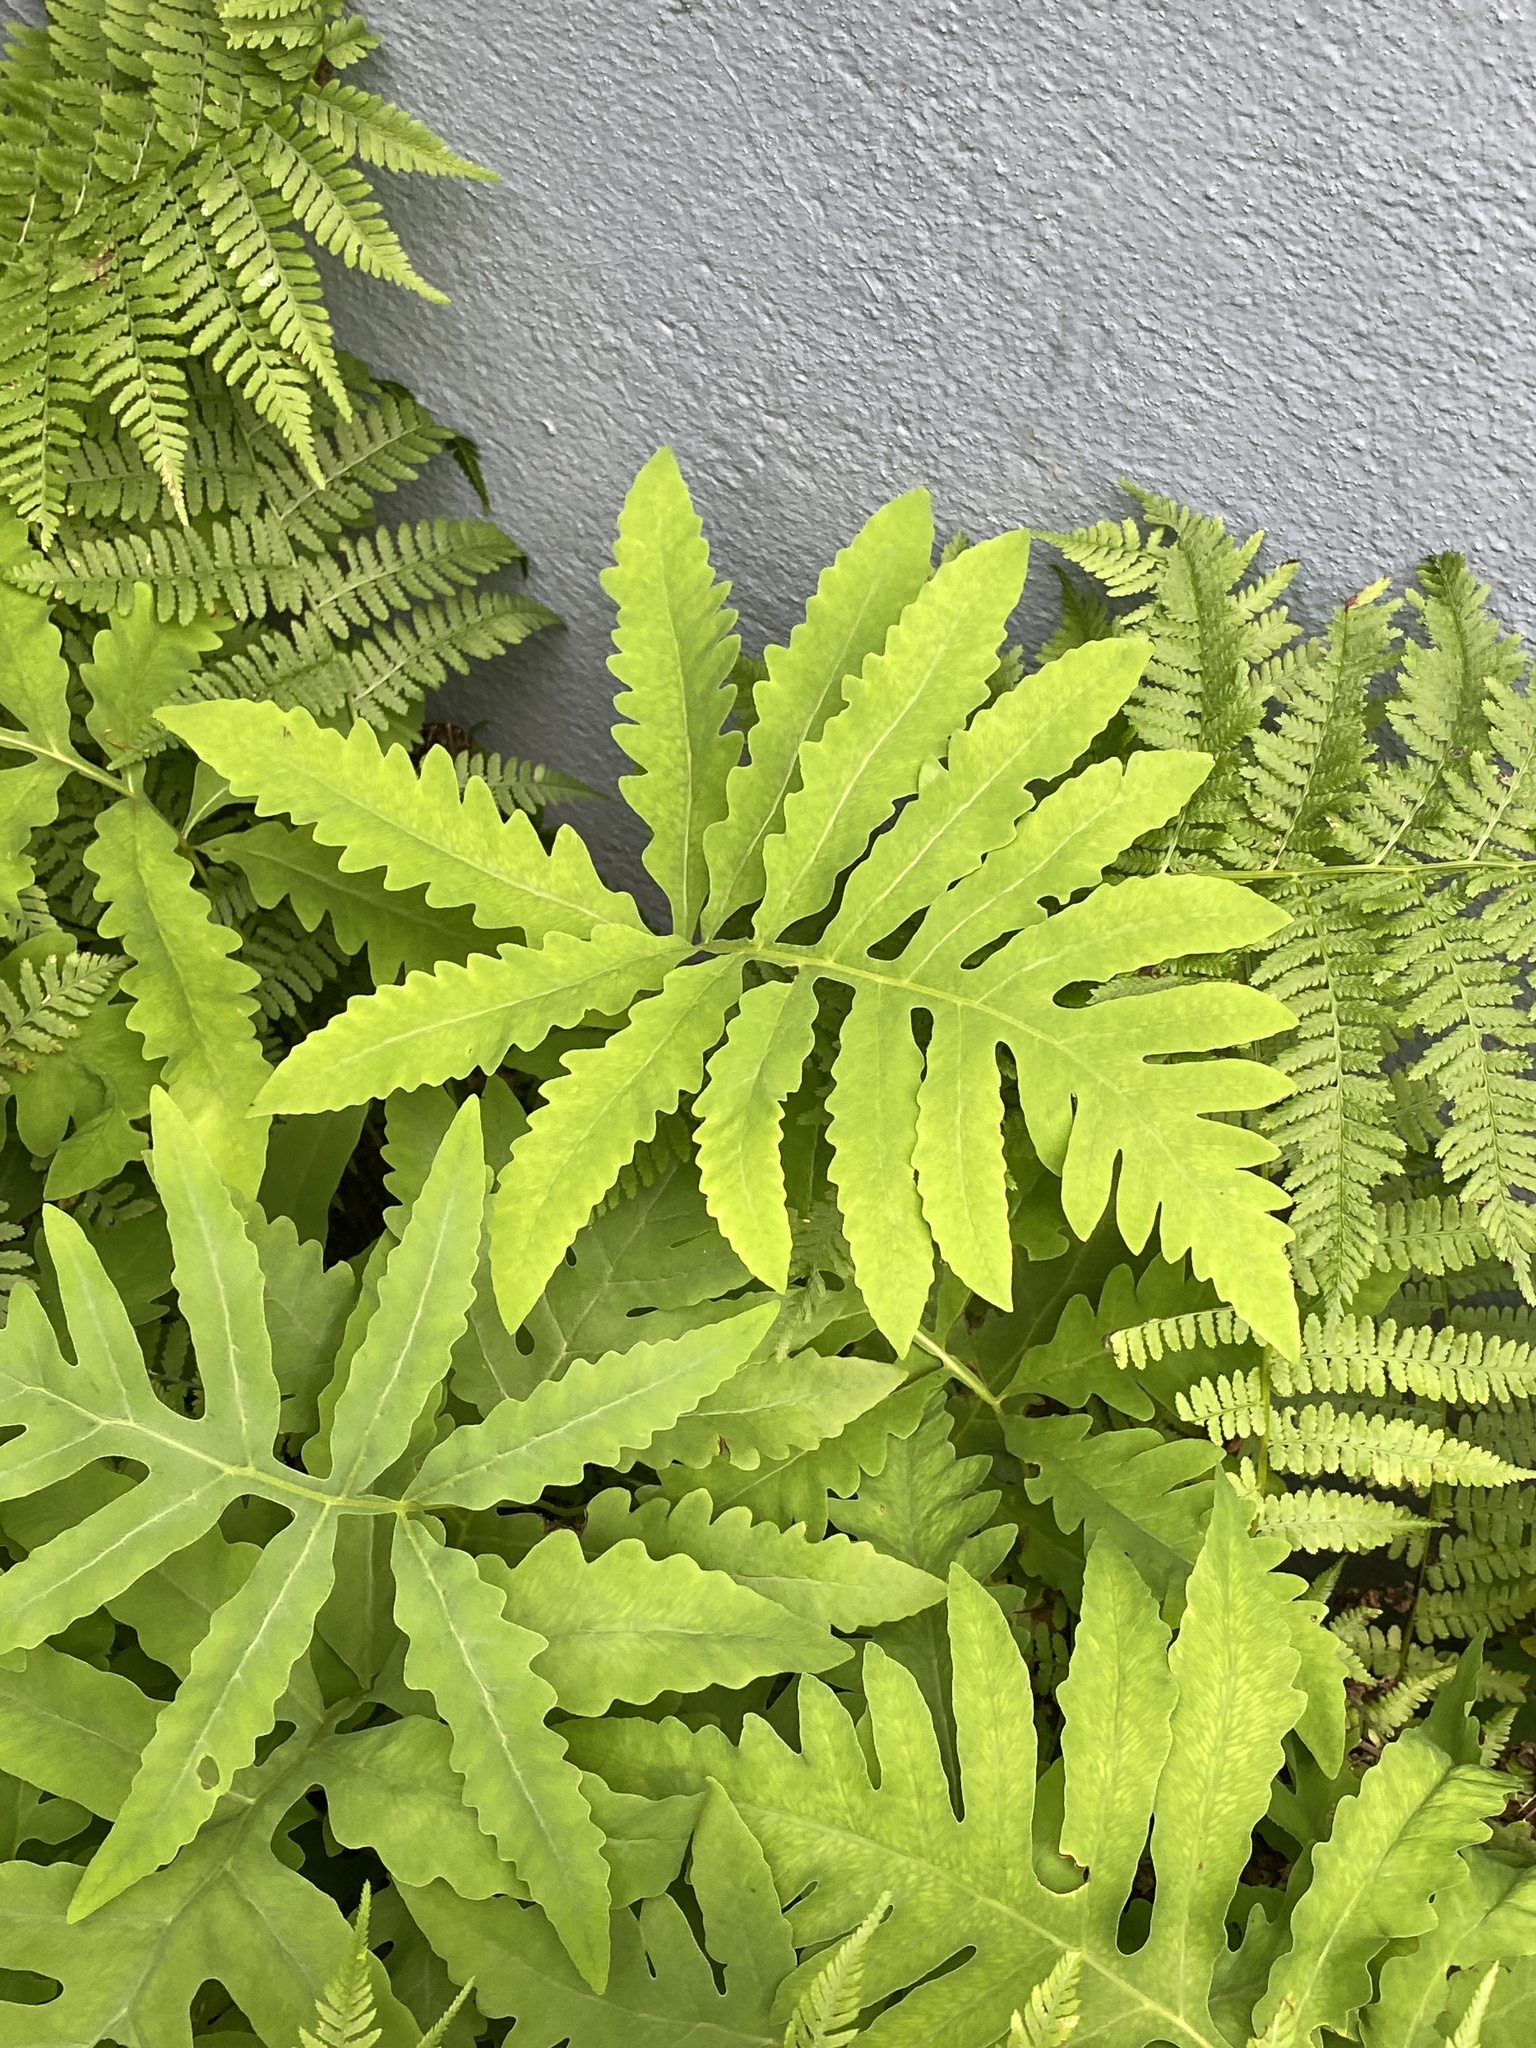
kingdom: Plantae
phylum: Tracheophyta
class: Polypodiopsida
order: Polypodiales
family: Onocleaceae
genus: Onoclea
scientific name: Onoclea sensibilis
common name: Sensitive fern
